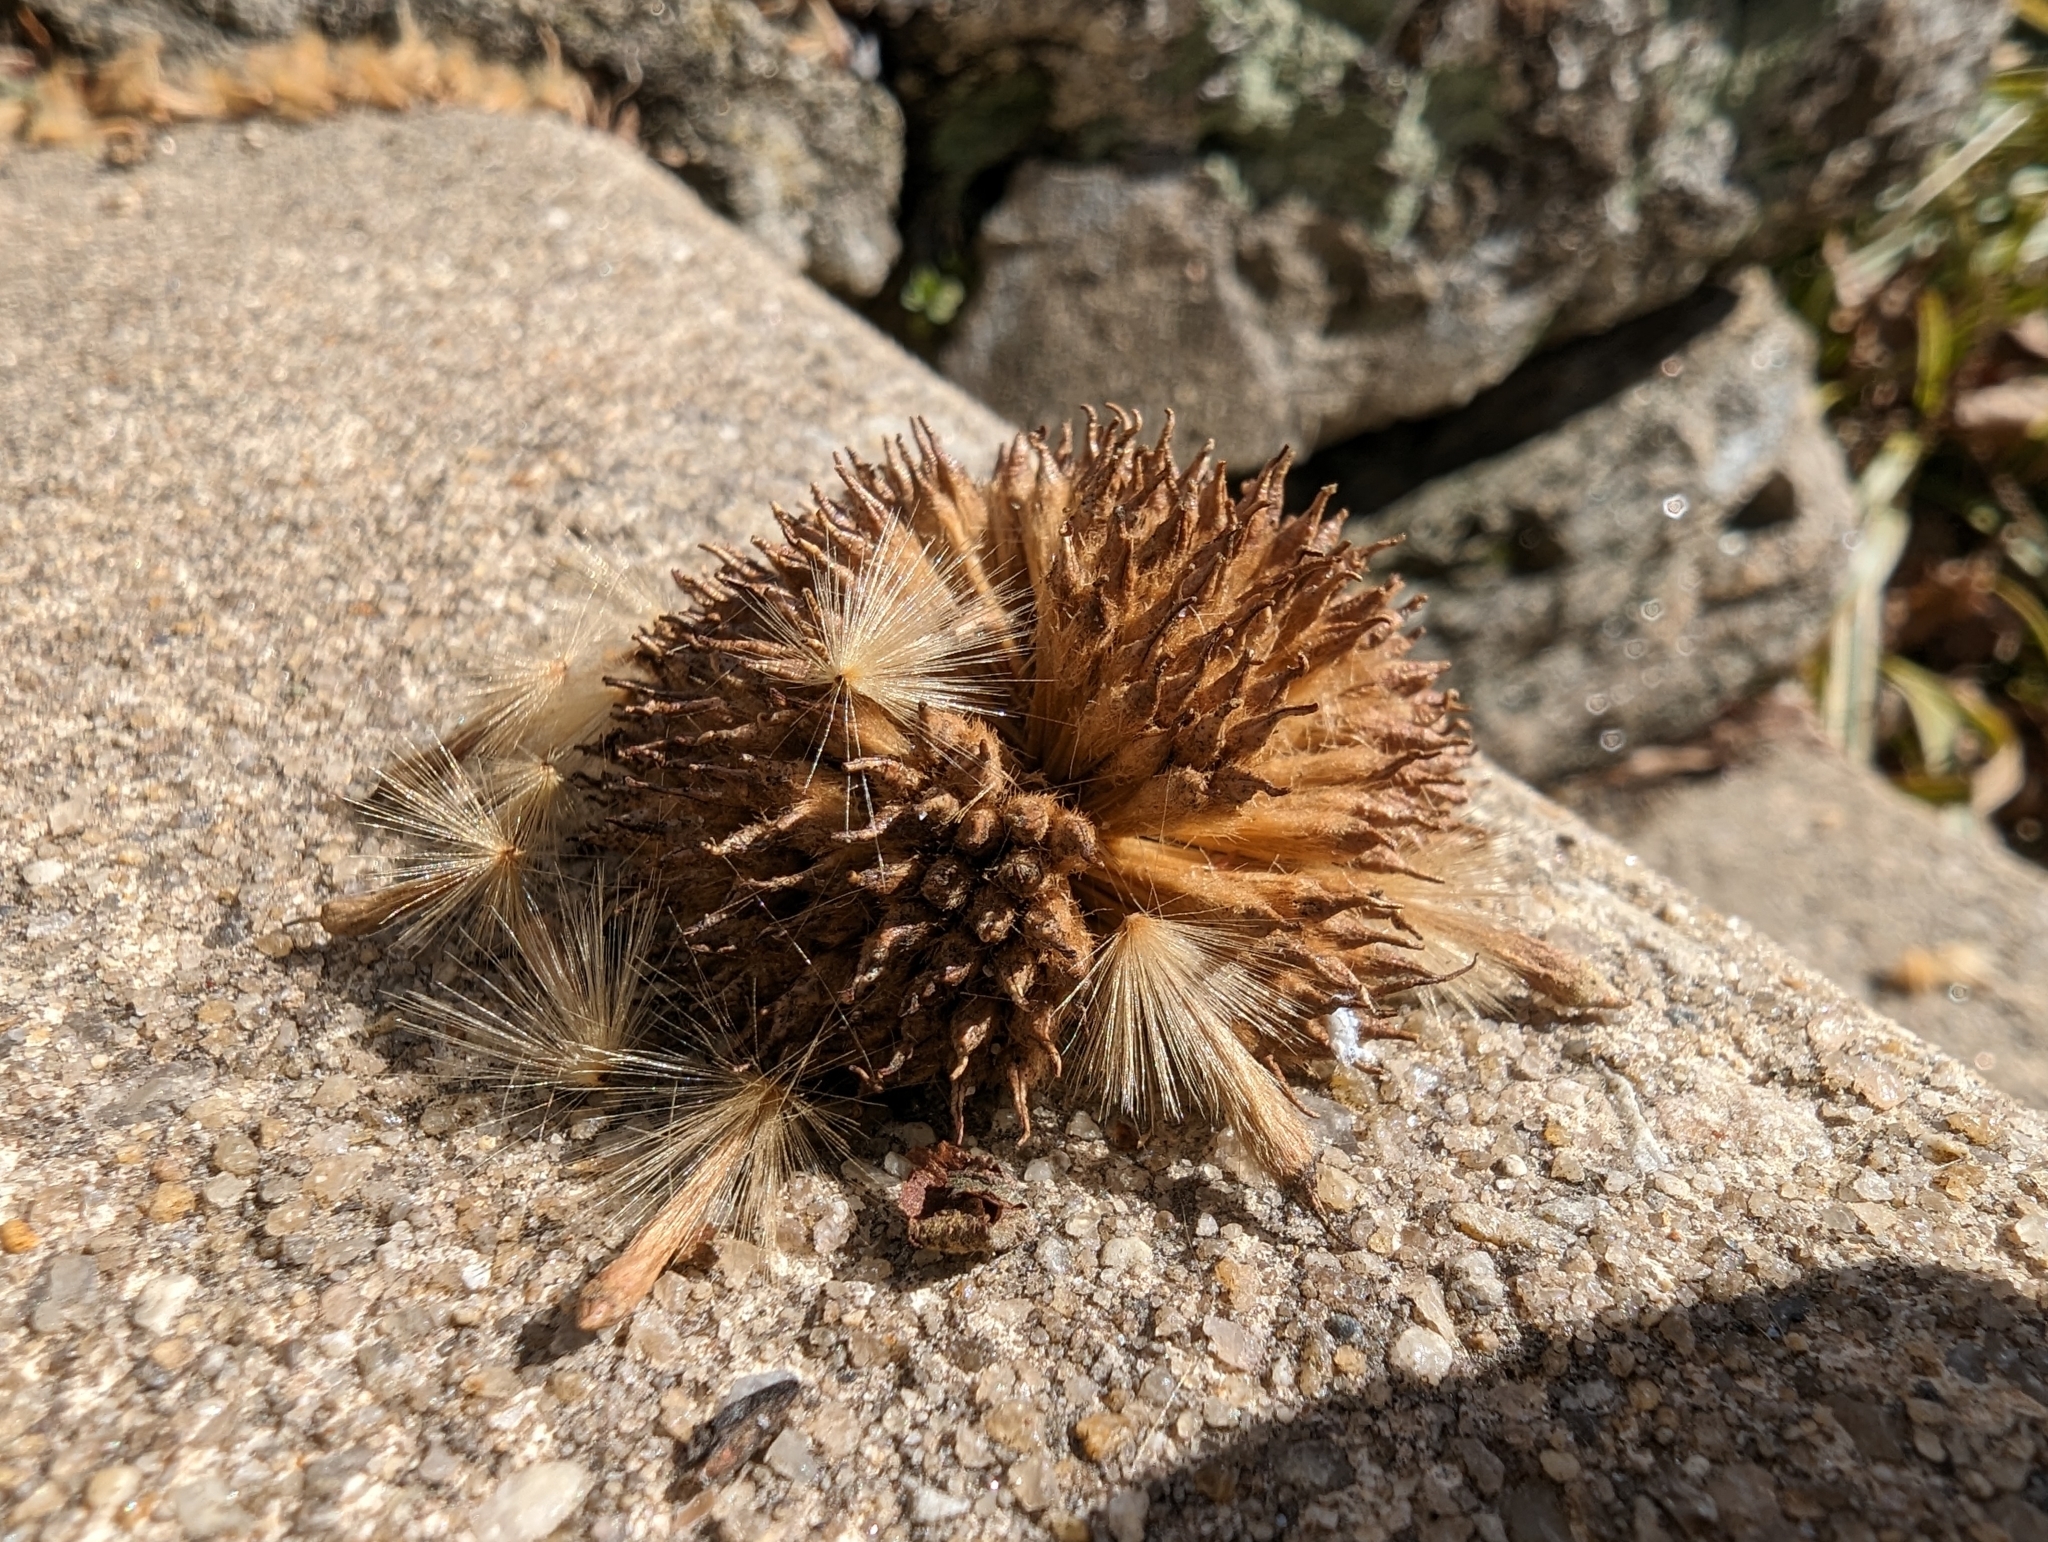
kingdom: Plantae
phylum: Tracheophyta
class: Magnoliopsida
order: Proteales
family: Platanaceae
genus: Platanus
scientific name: Platanus occidentalis
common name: American sycamore
